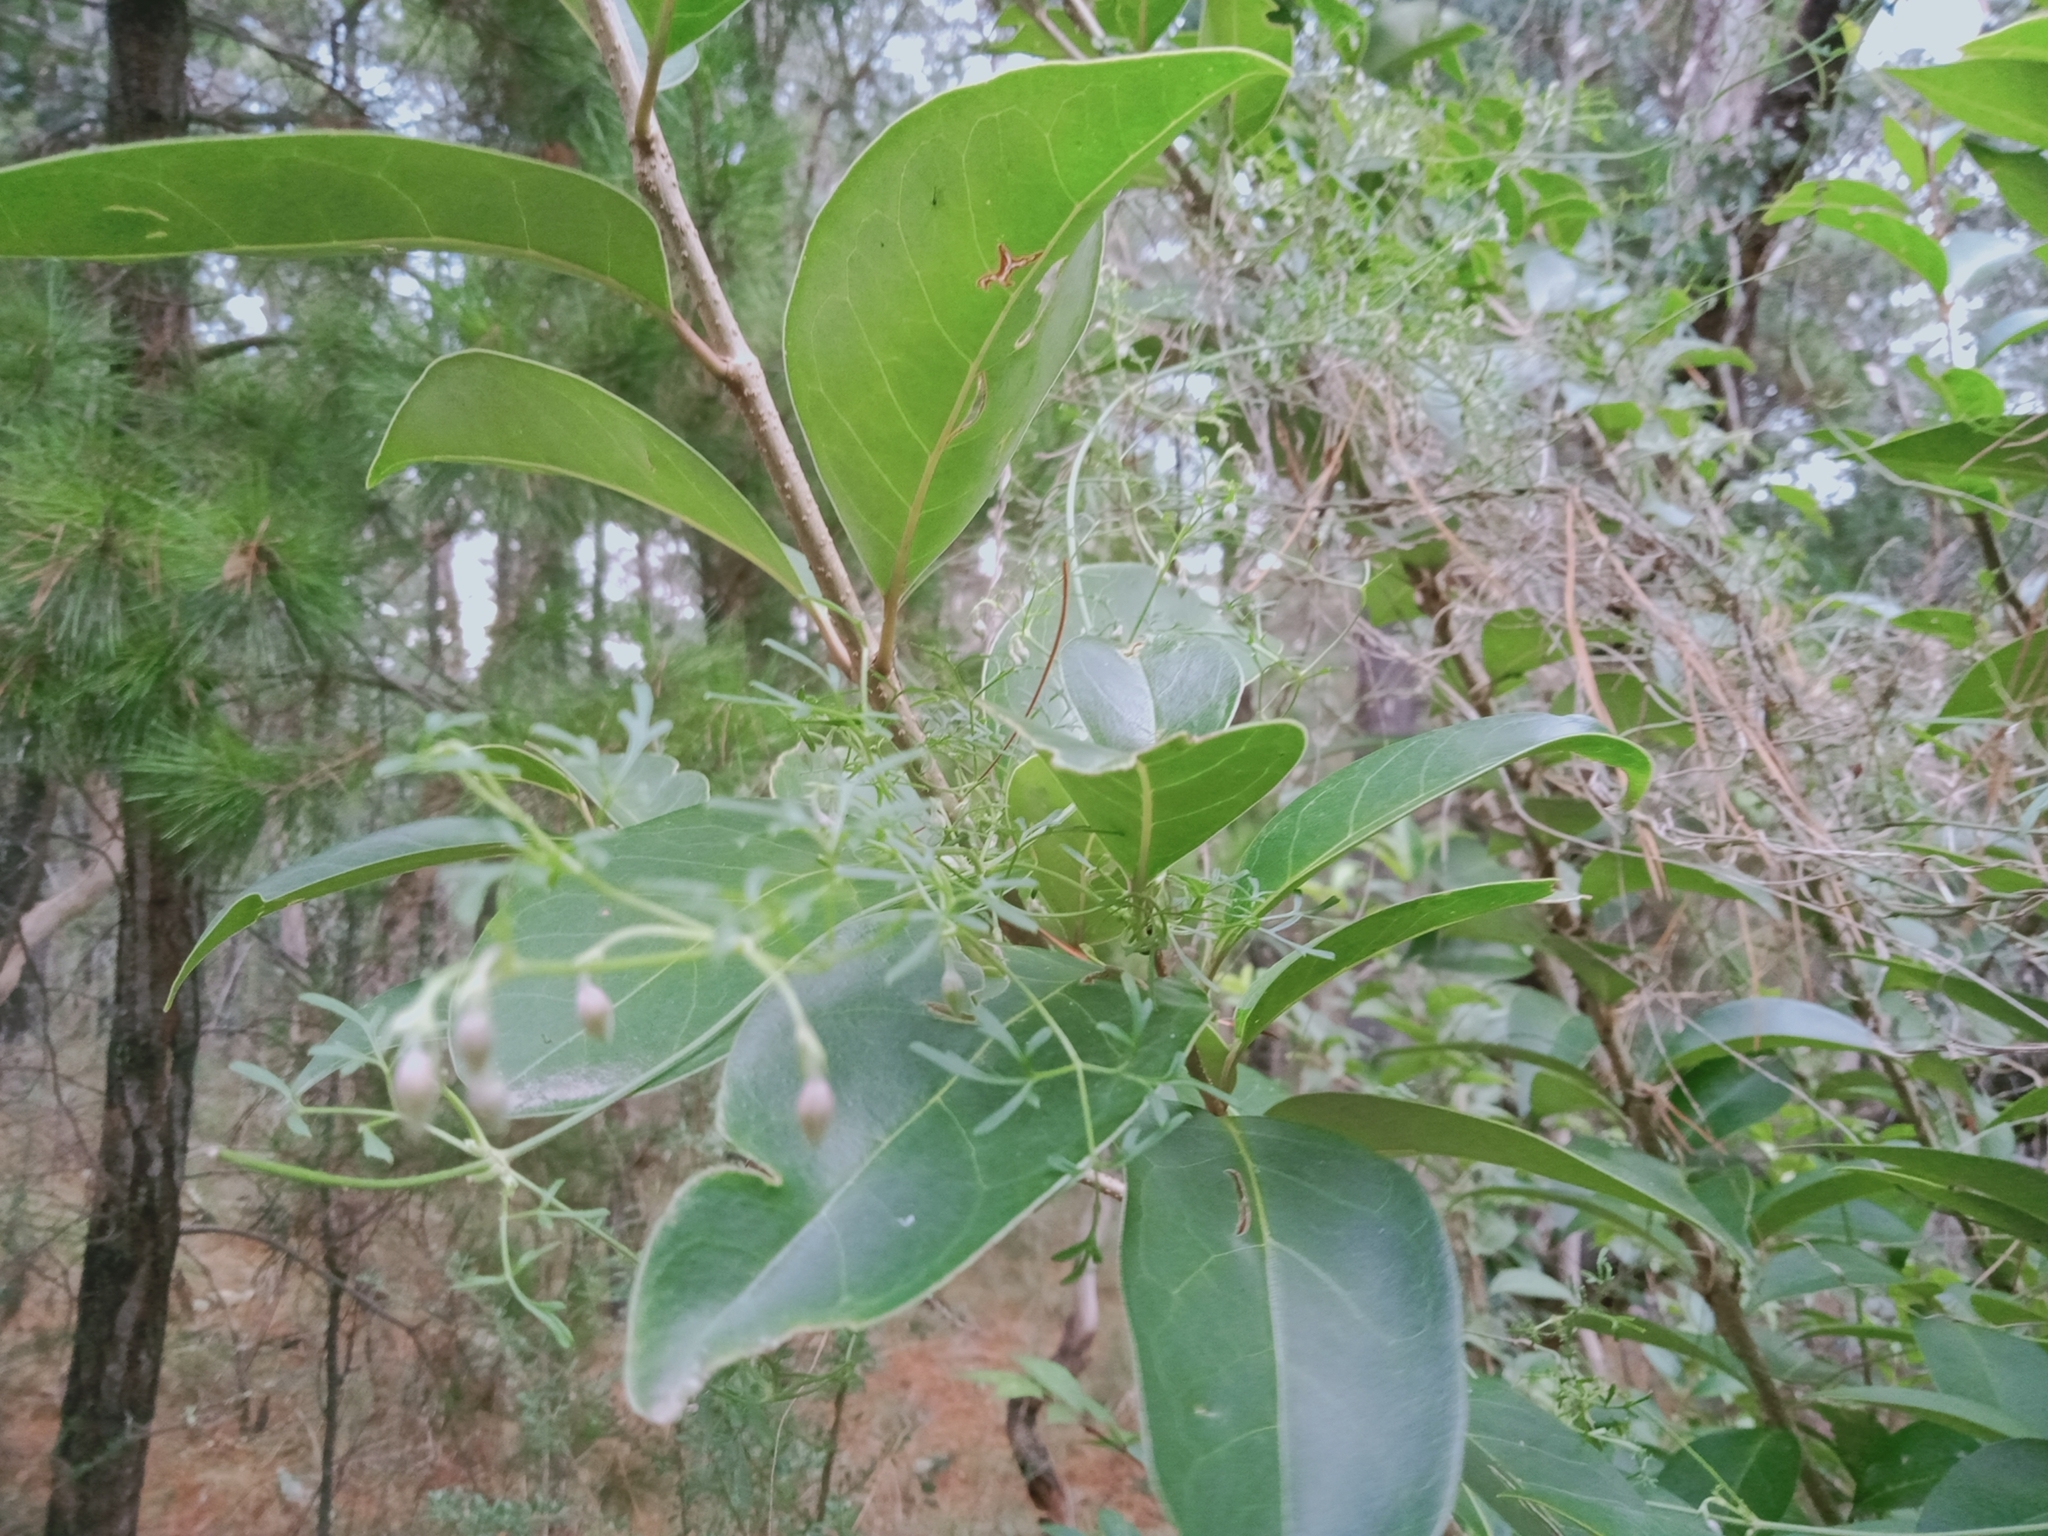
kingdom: Plantae
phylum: Tracheophyta
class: Magnoliopsida
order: Ranunculales
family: Ranunculaceae
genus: Clematis
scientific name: Clematis leptophylla
